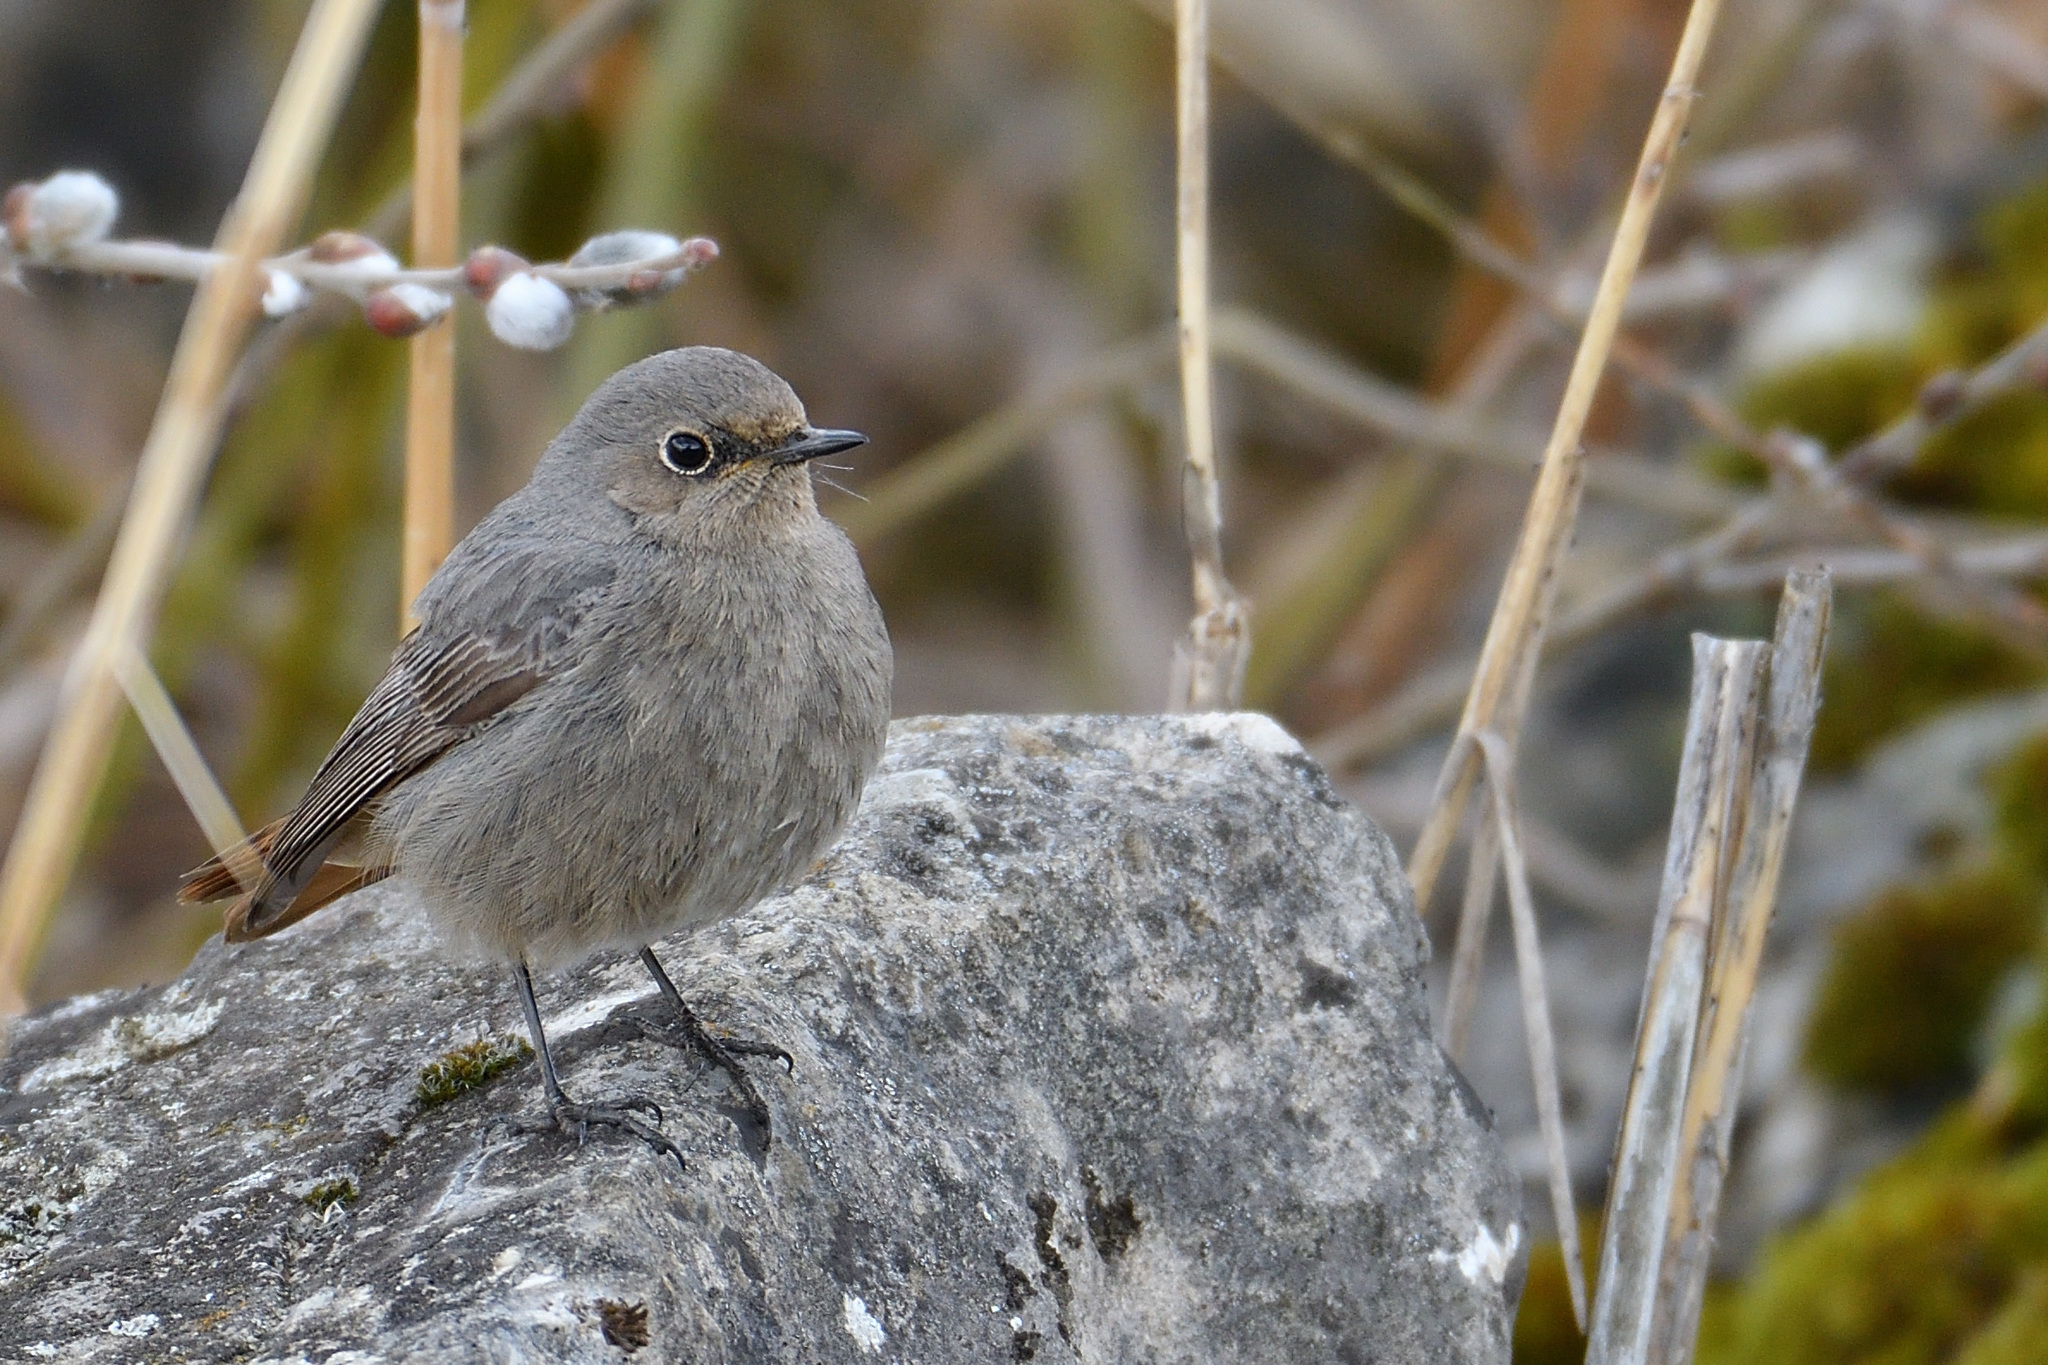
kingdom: Animalia
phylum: Chordata
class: Aves
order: Passeriformes
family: Muscicapidae
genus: Phoenicurus
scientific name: Phoenicurus ochruros
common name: Black redstart
